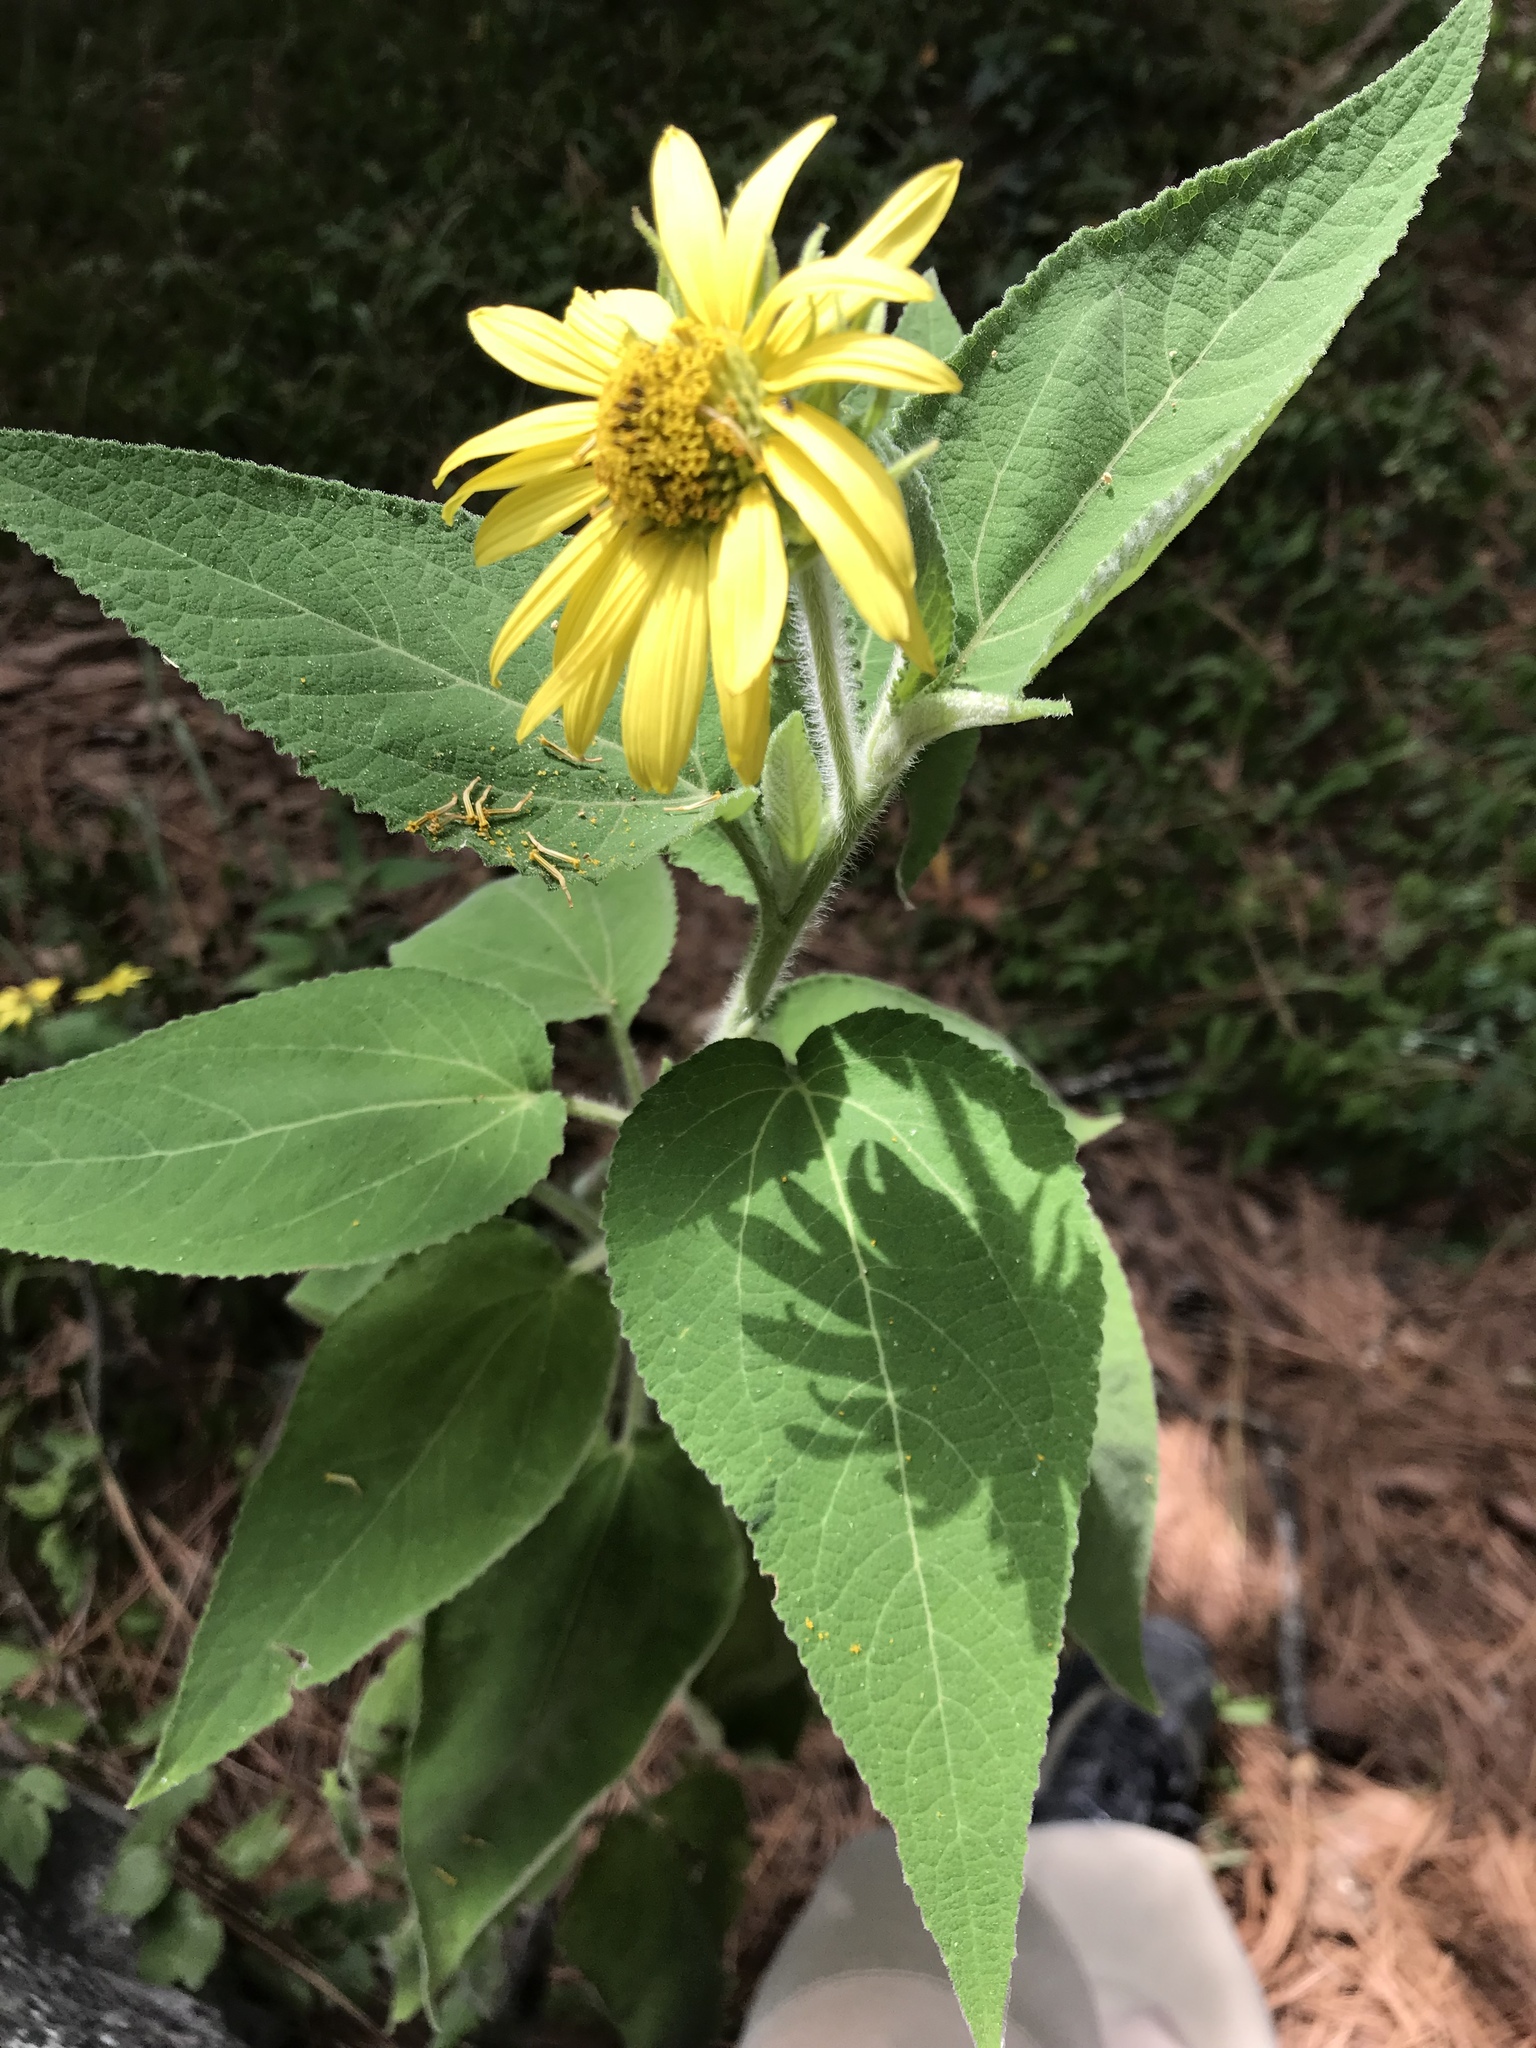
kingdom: Plantae
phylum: Tracheophyta
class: Magnoliopsida
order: Asterales
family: Asteraceae
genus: Vigethia
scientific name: Vigethia mexicana
